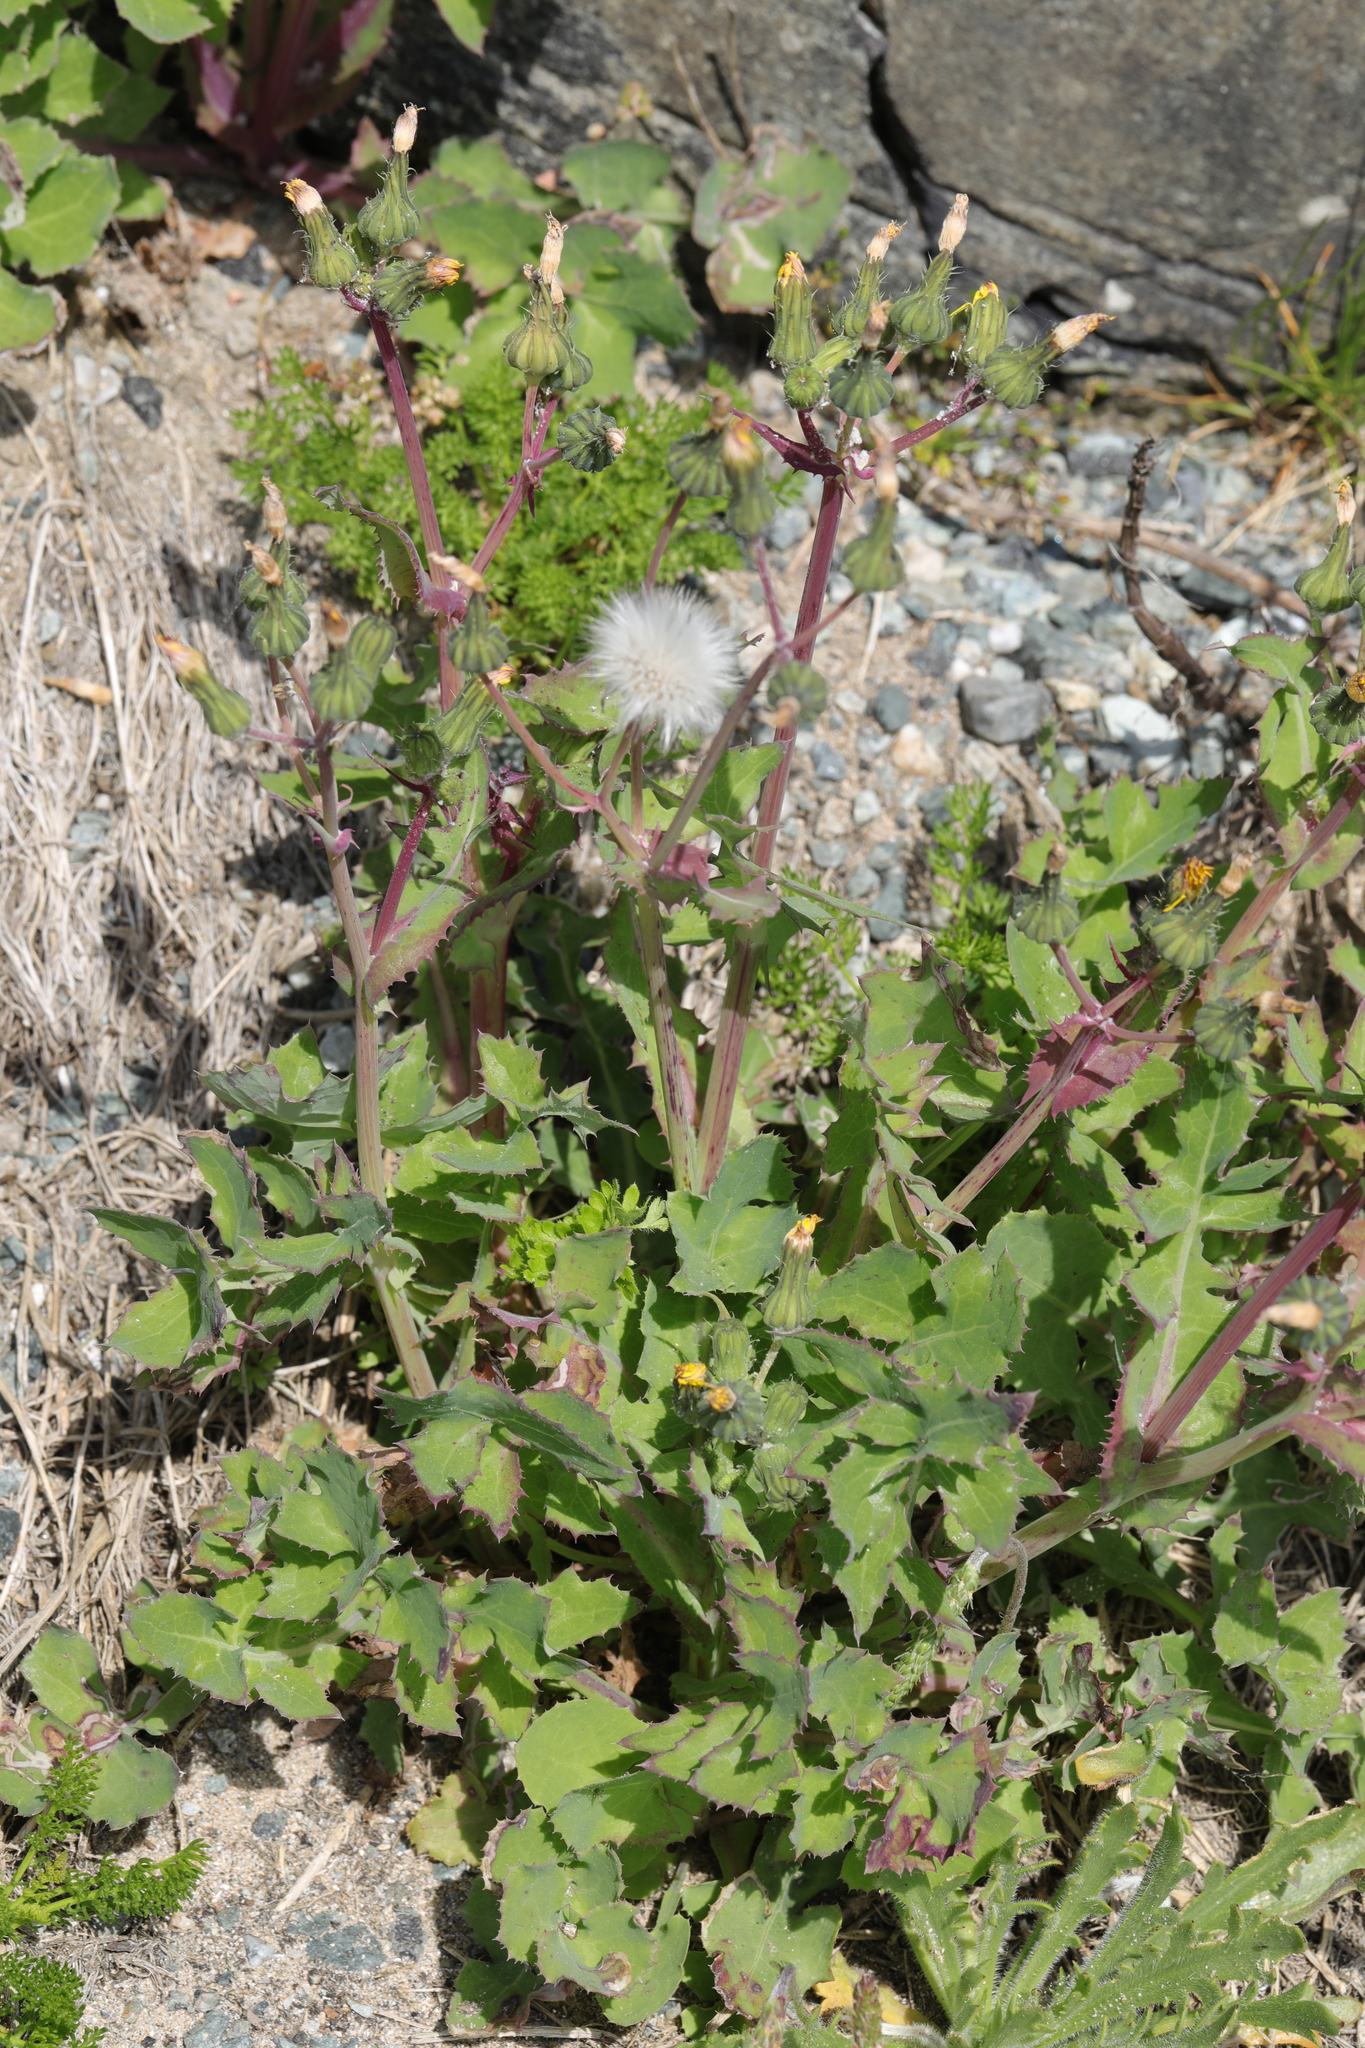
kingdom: Plantae
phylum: Tracheophyta
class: Magnoliopsida
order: Asterales
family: Asteraceae
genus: Sonchus
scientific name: Sonchus oleraceus
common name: Common sowthistle
